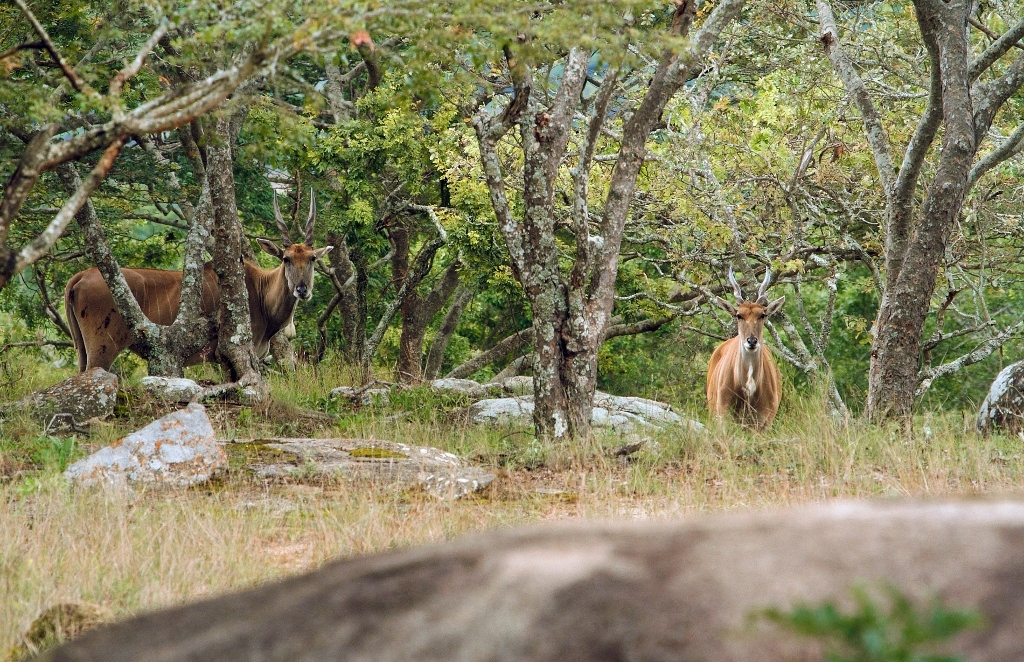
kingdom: Animalia
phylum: Chordata
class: Mammalia
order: Artiodactyla
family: Bovidae
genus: Taurotragus
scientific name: Taurotragus oryx
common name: Common eland
